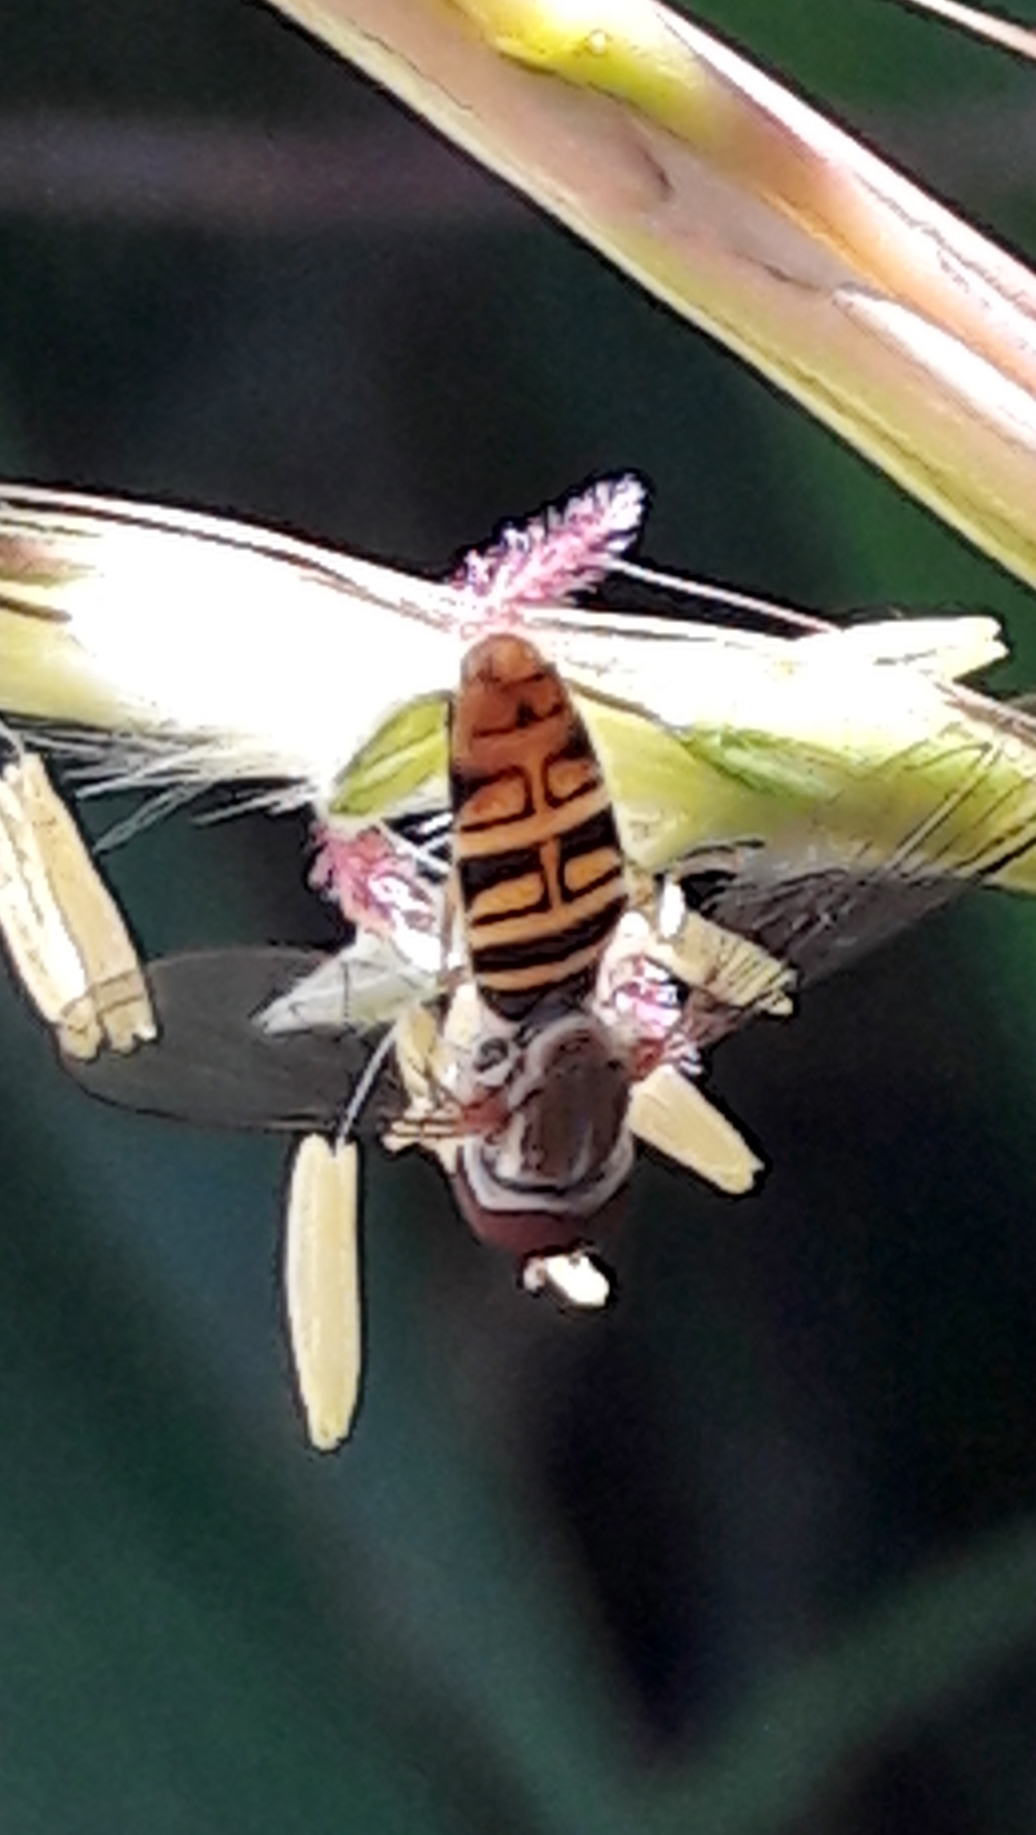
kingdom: Animalia
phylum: Arthropoda
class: Insecta
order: Diptera
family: Syrphidae
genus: Toxomerus
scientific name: Toxomerus politus
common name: Maize calligrapher
